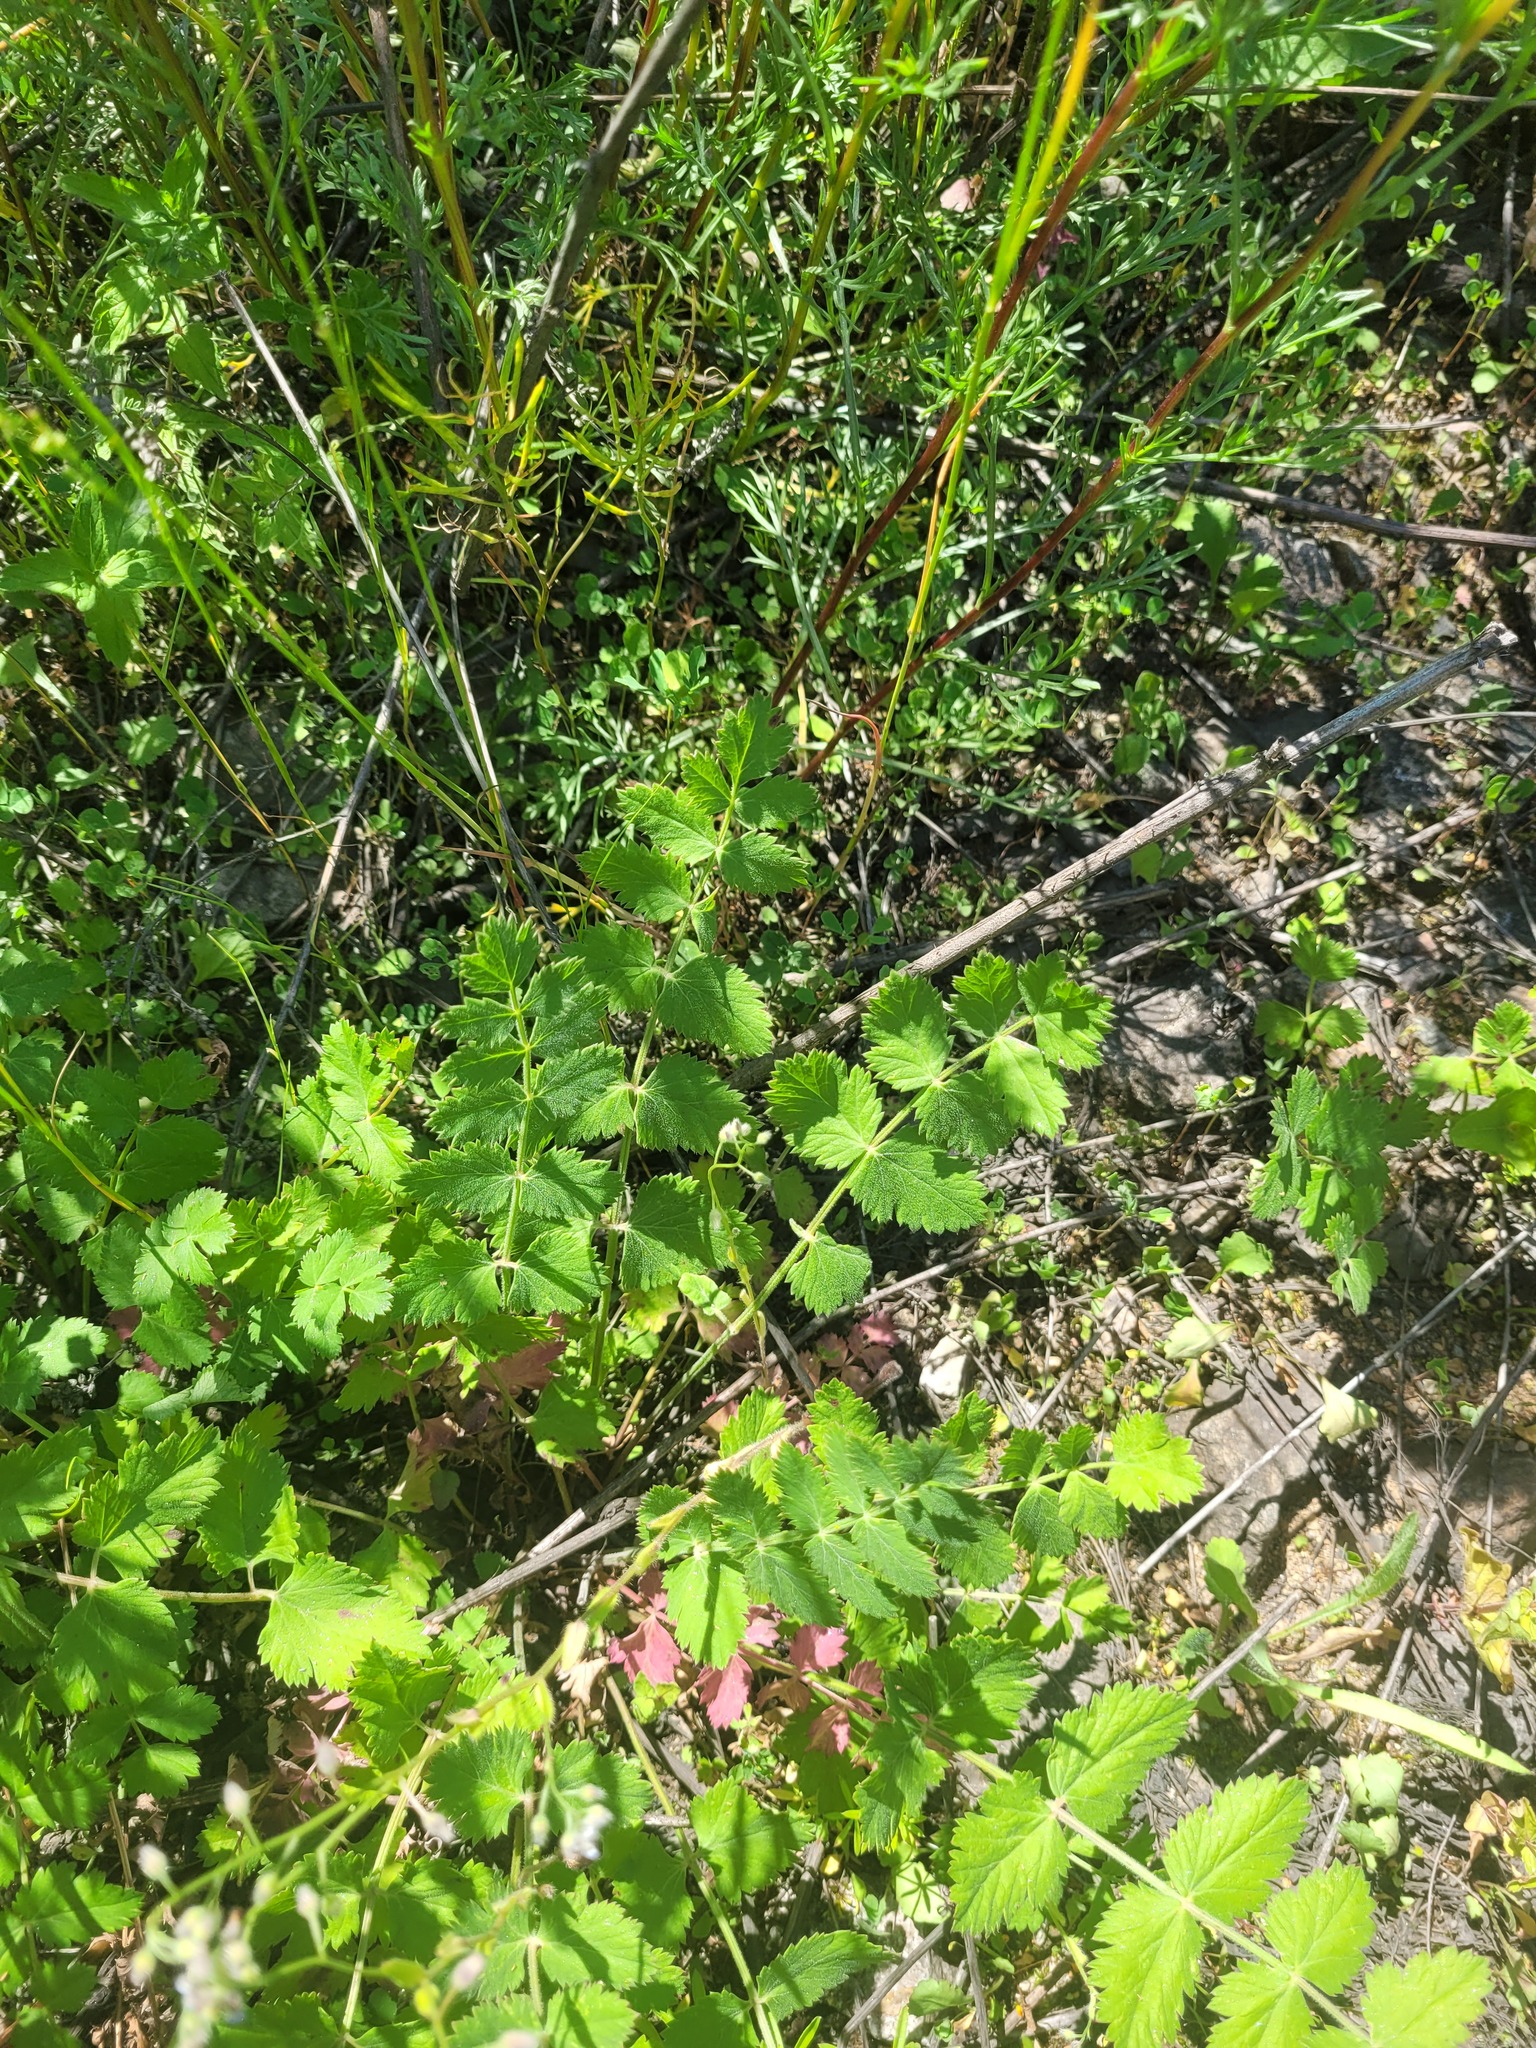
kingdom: Plantae
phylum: Tracheophyta
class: Magnoliopsida
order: Apiales
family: Apiaceae
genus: Pimpinella
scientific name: Pimpinella saxifraga
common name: Burnet-saxifrage
